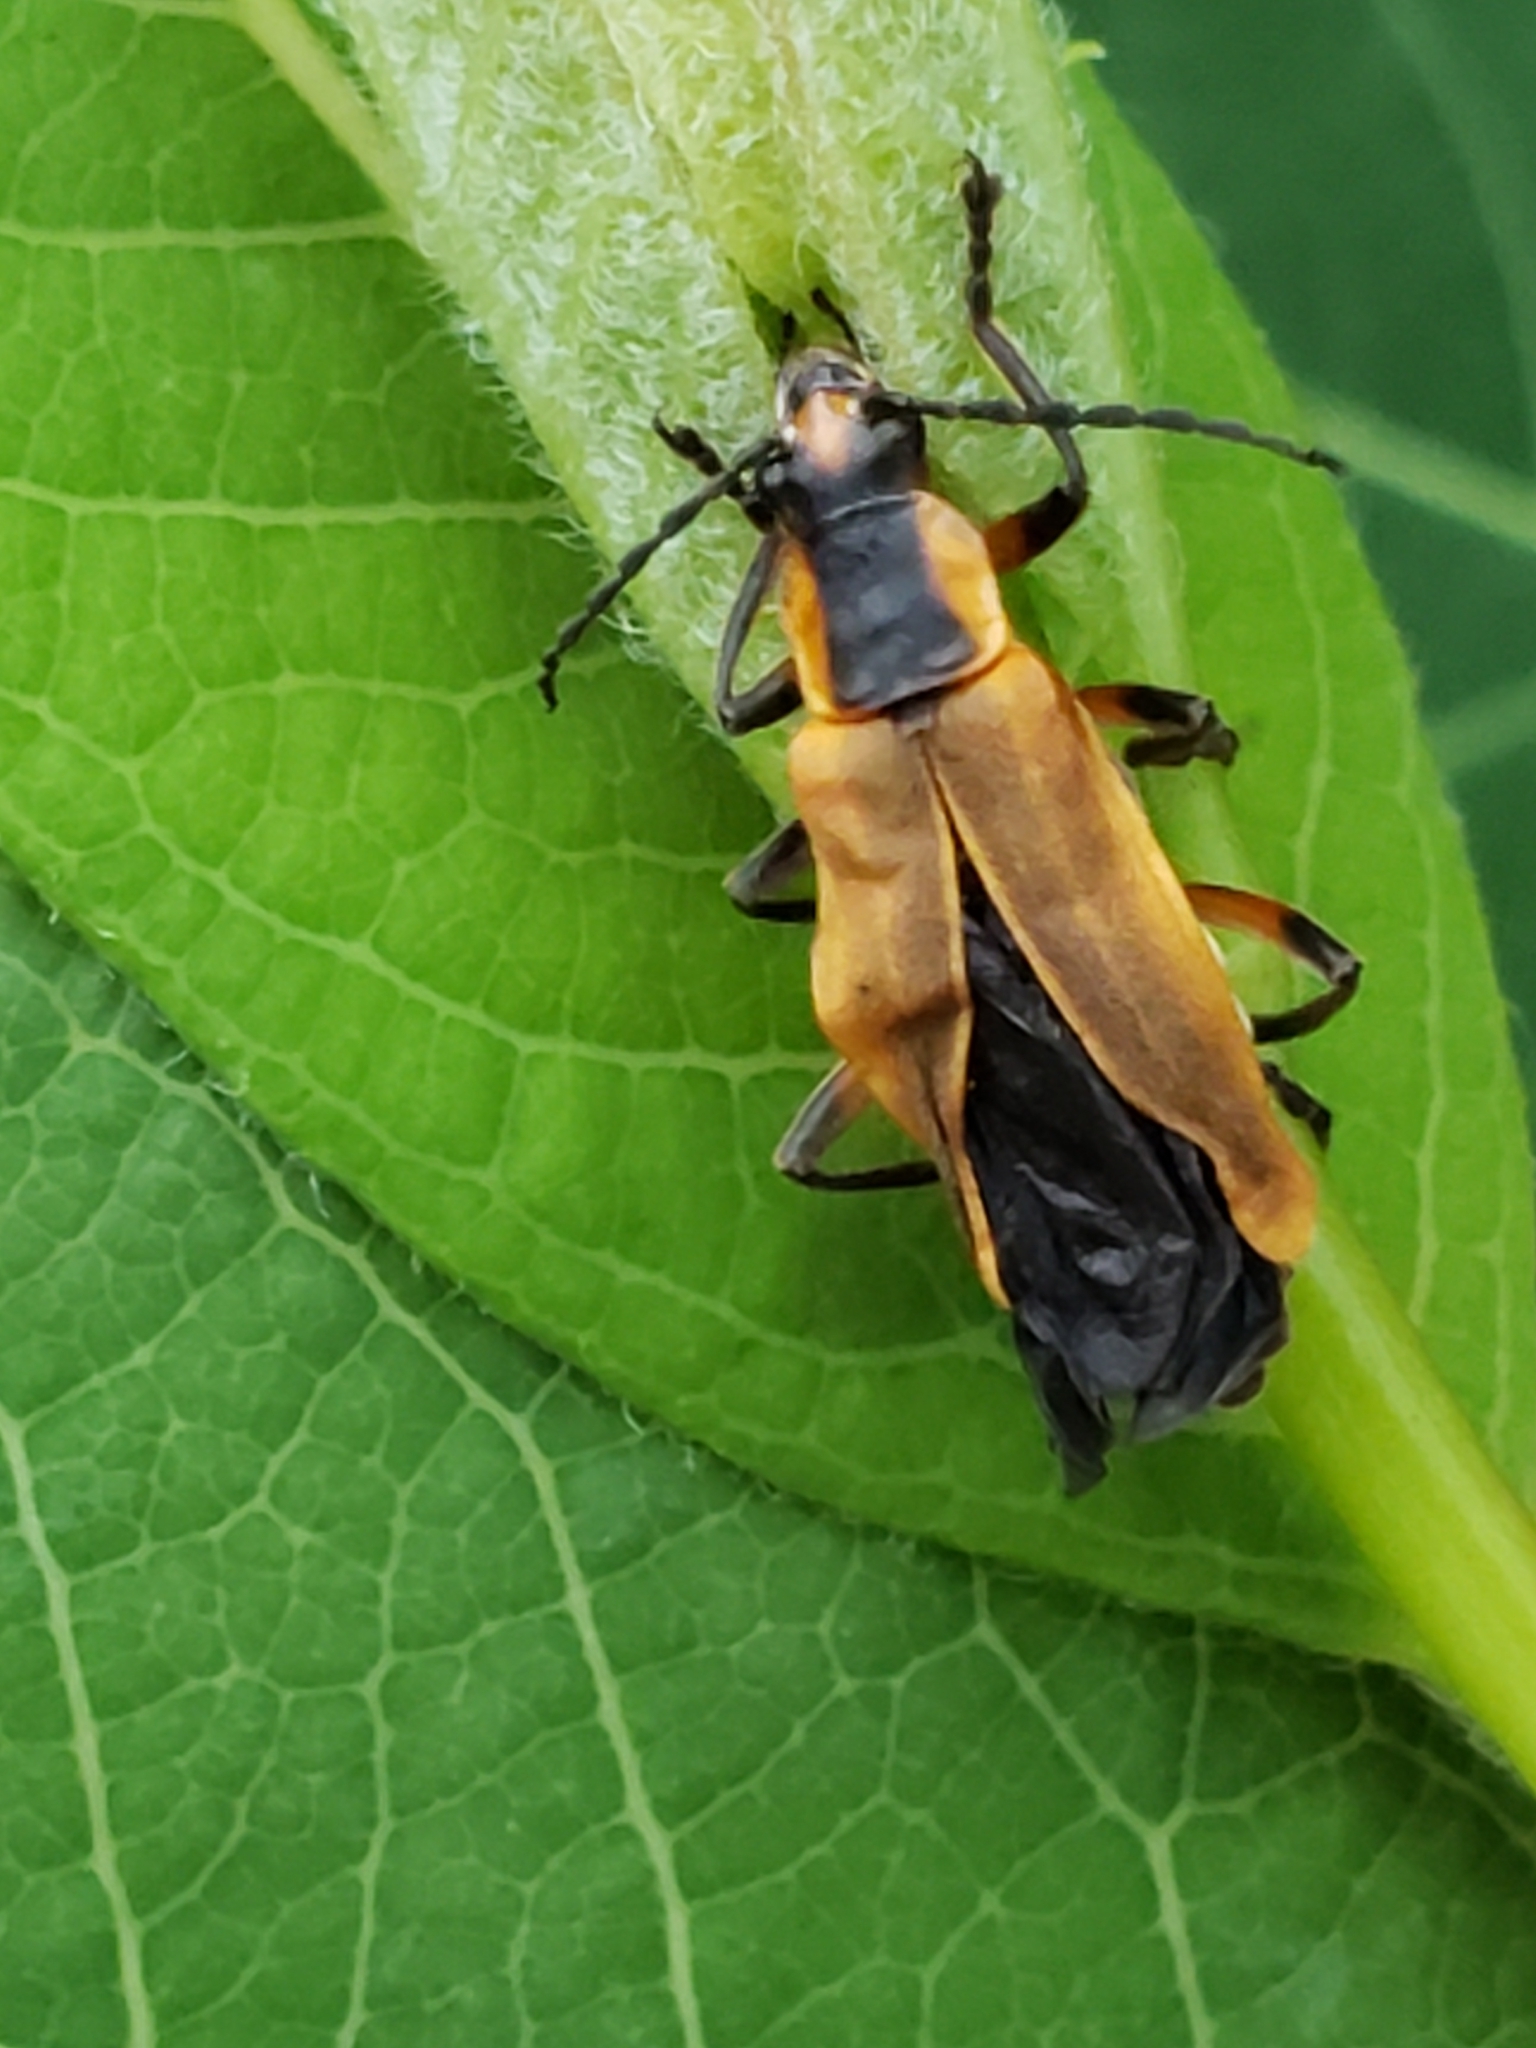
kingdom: Animalia
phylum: Arthropoda
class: Insecta
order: Coleoptera
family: Cantharidae
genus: Chauliognathus
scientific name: Chauliognathus marginatus
